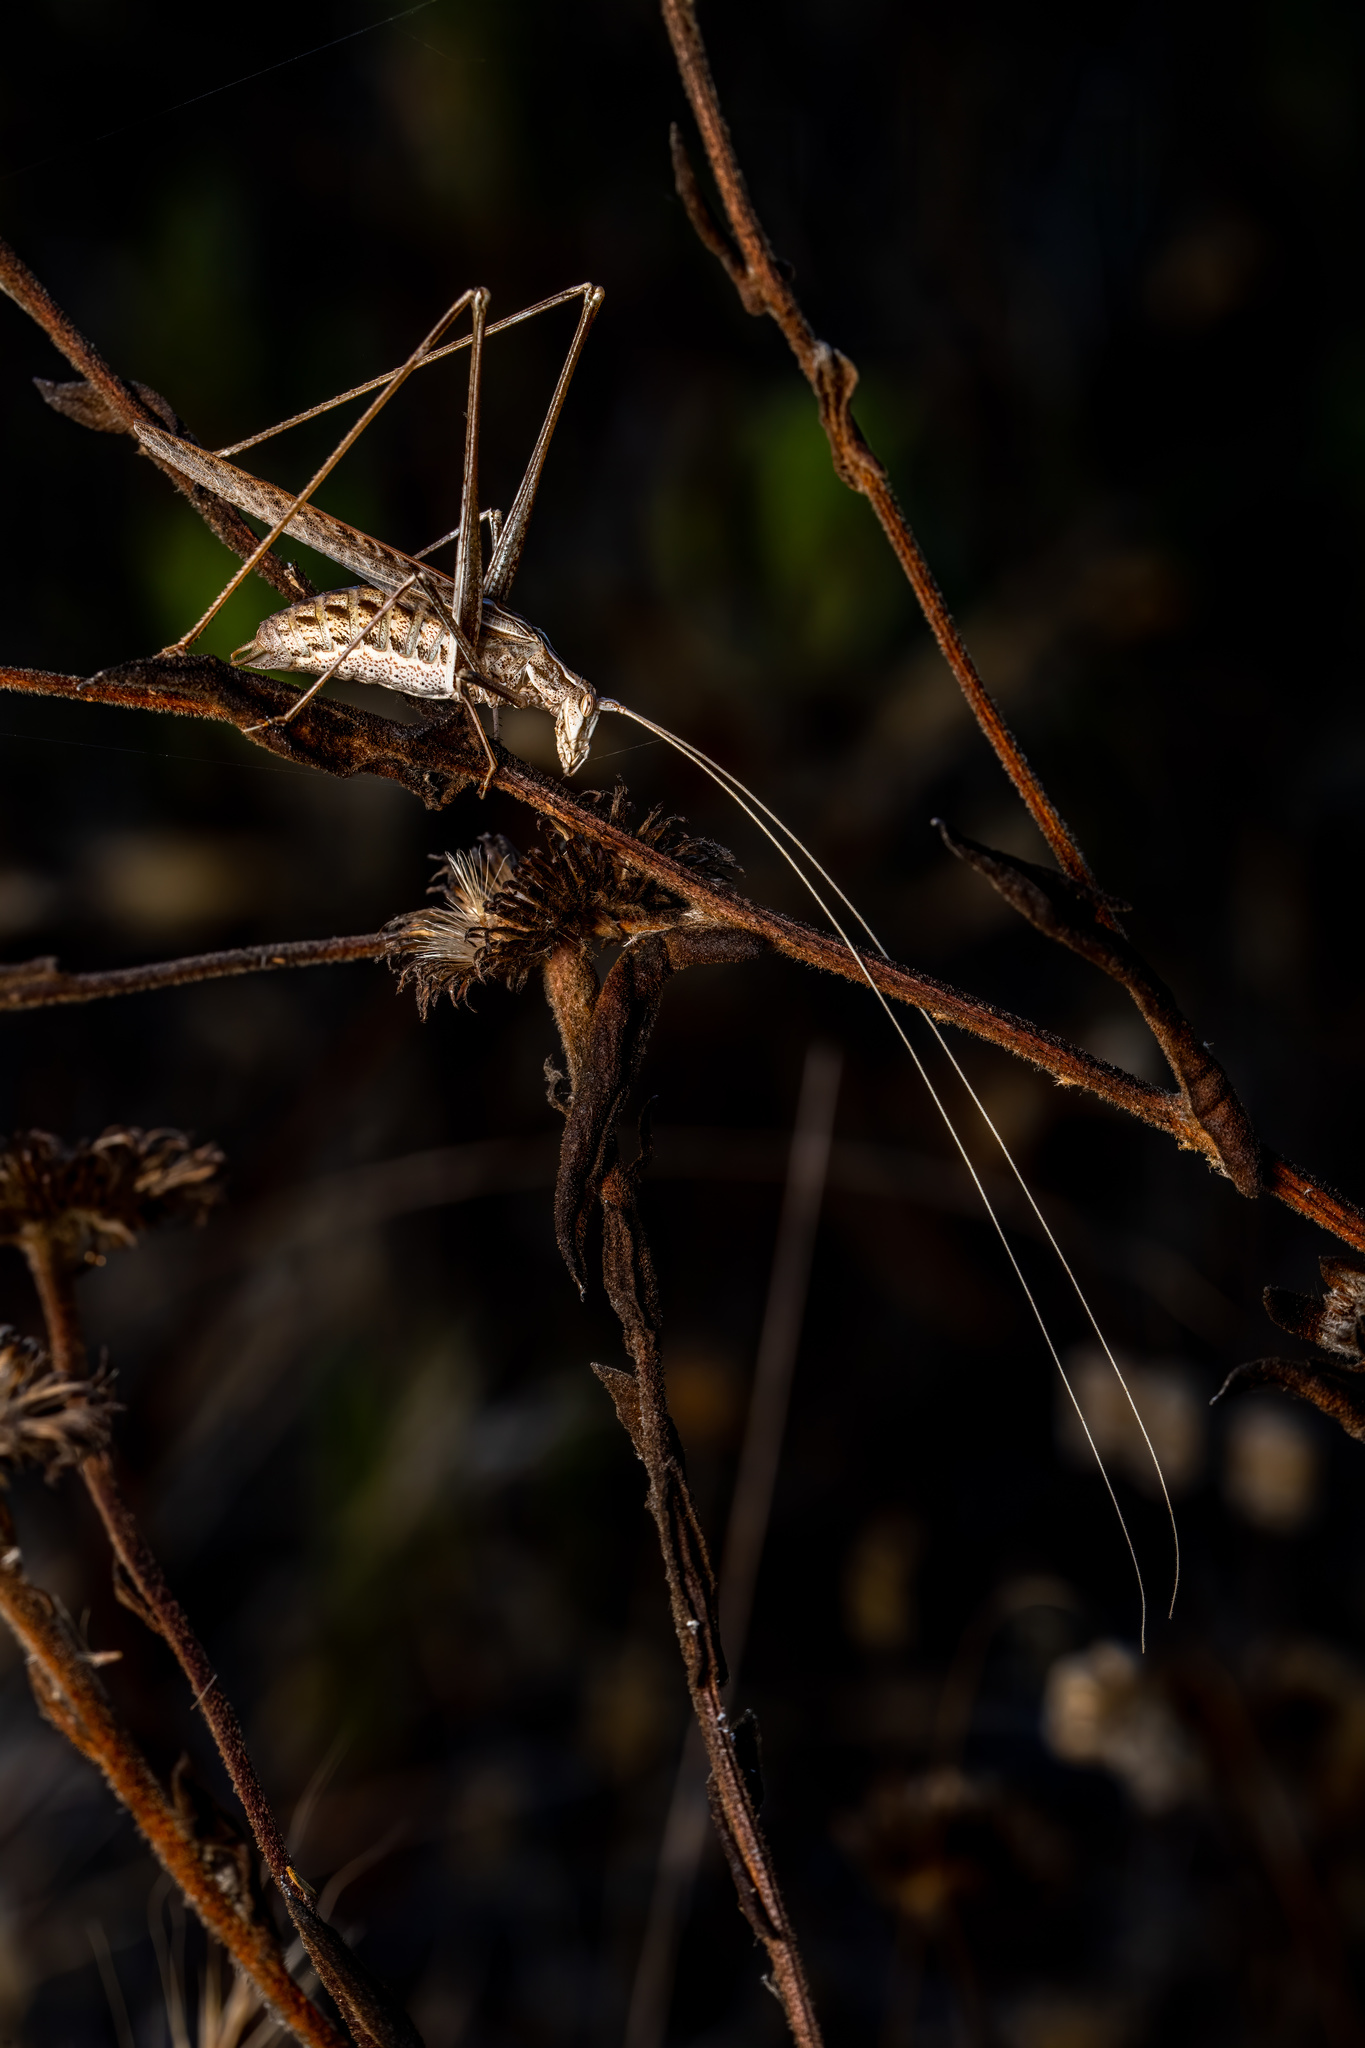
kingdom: Animalia
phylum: Arthropoda
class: Insecta
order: Orthoptera
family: Tettigoniidae
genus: Tylopsis
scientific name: Tylopsis lilifolia
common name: Lily bush-cricket
